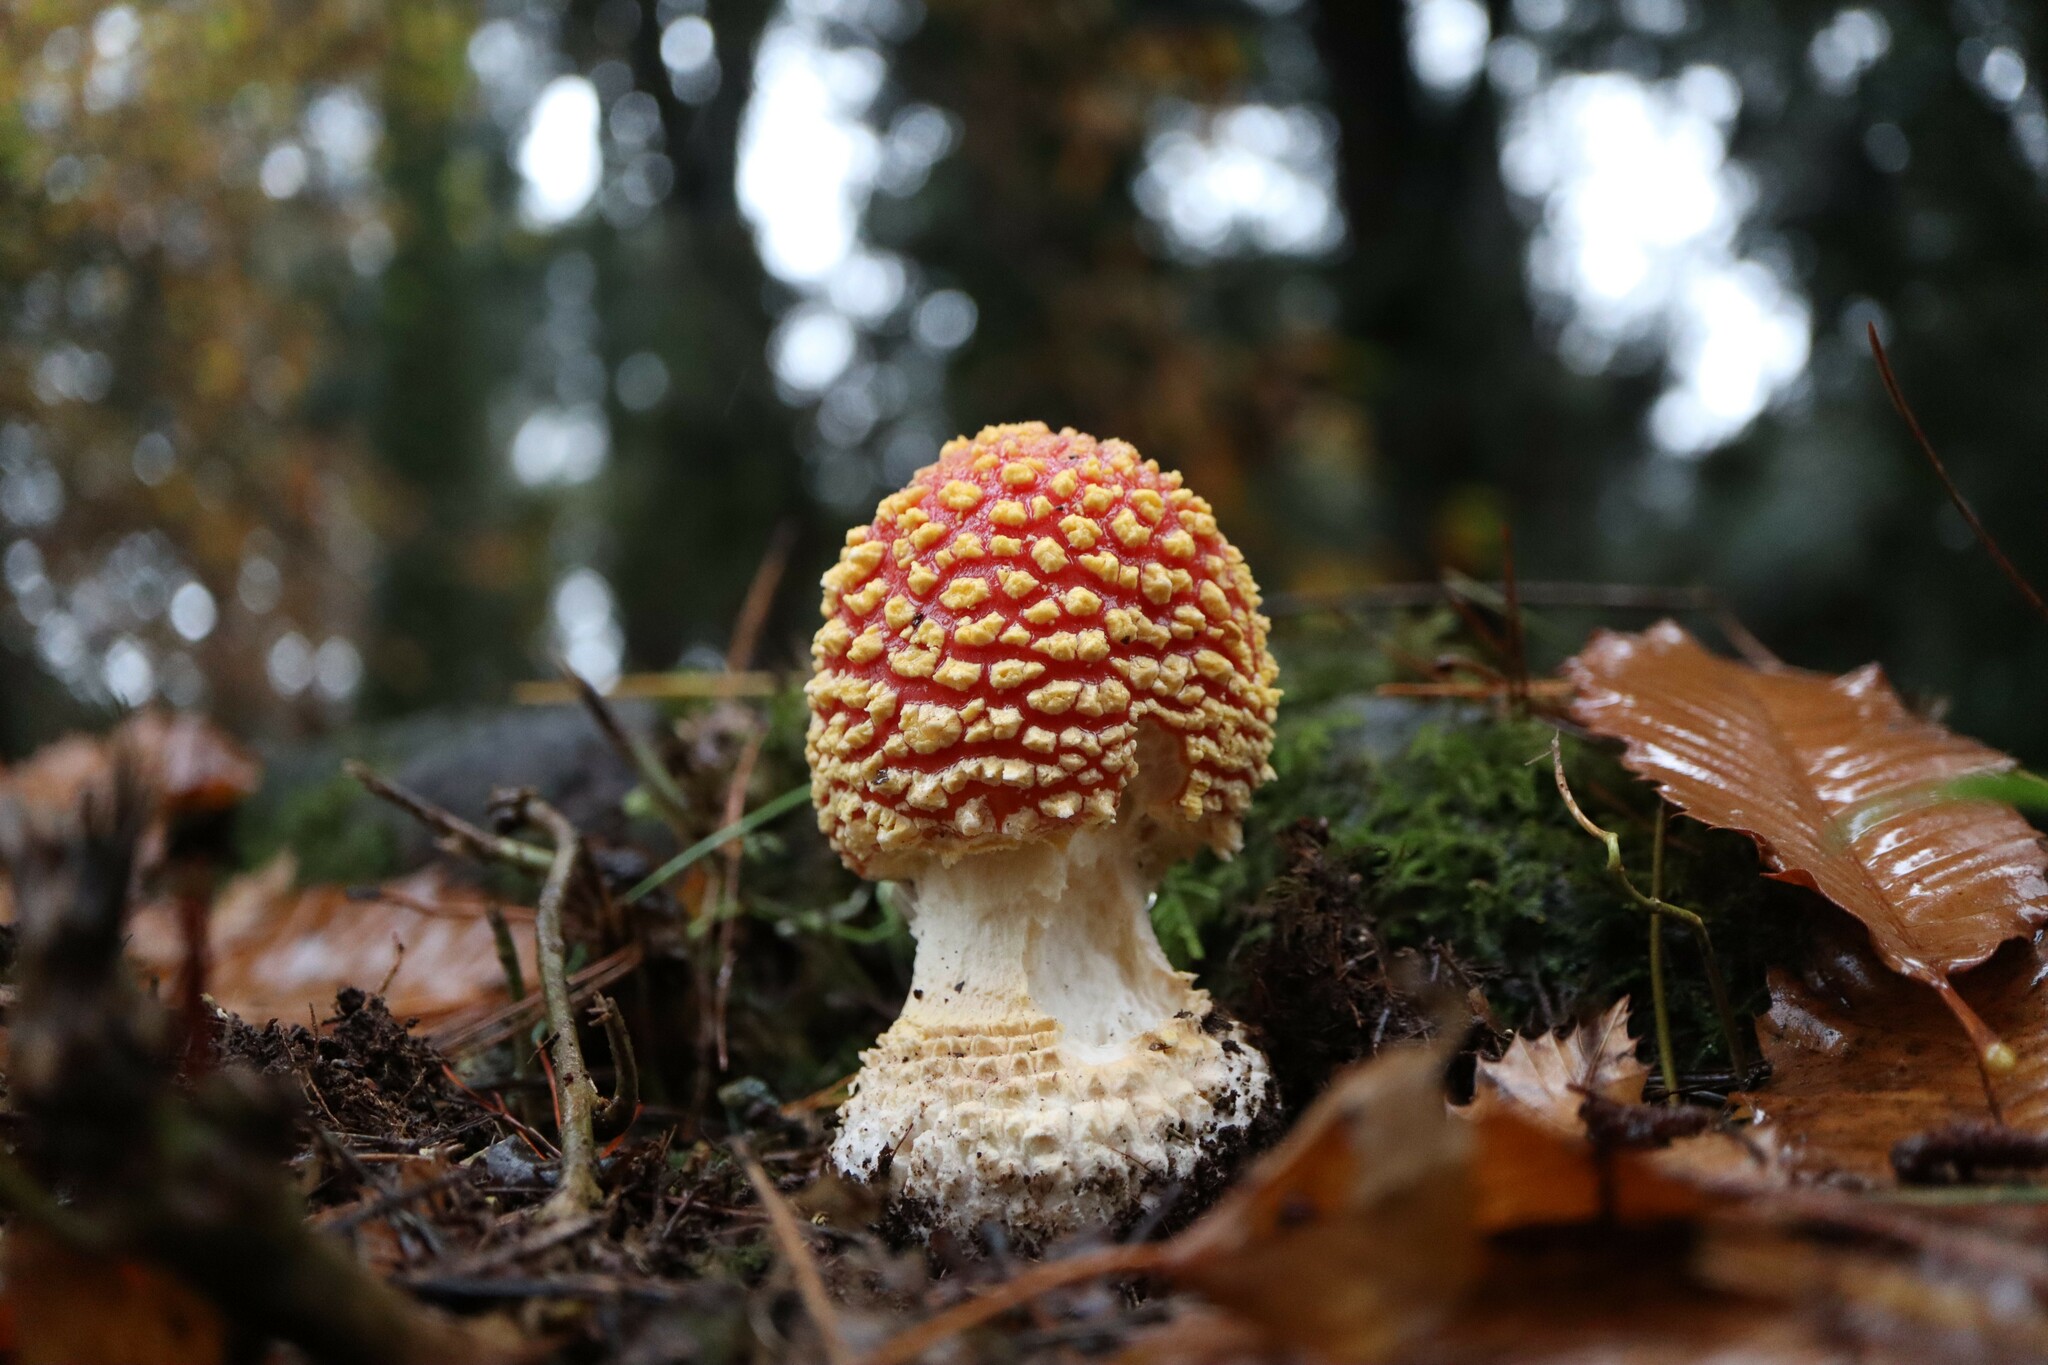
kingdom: Fungi
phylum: Basidiomycota
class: Agaricomycetes
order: Agaricales
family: Amanitaceae
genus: Amanita
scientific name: Amanita muscaria
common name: Fly agaric
